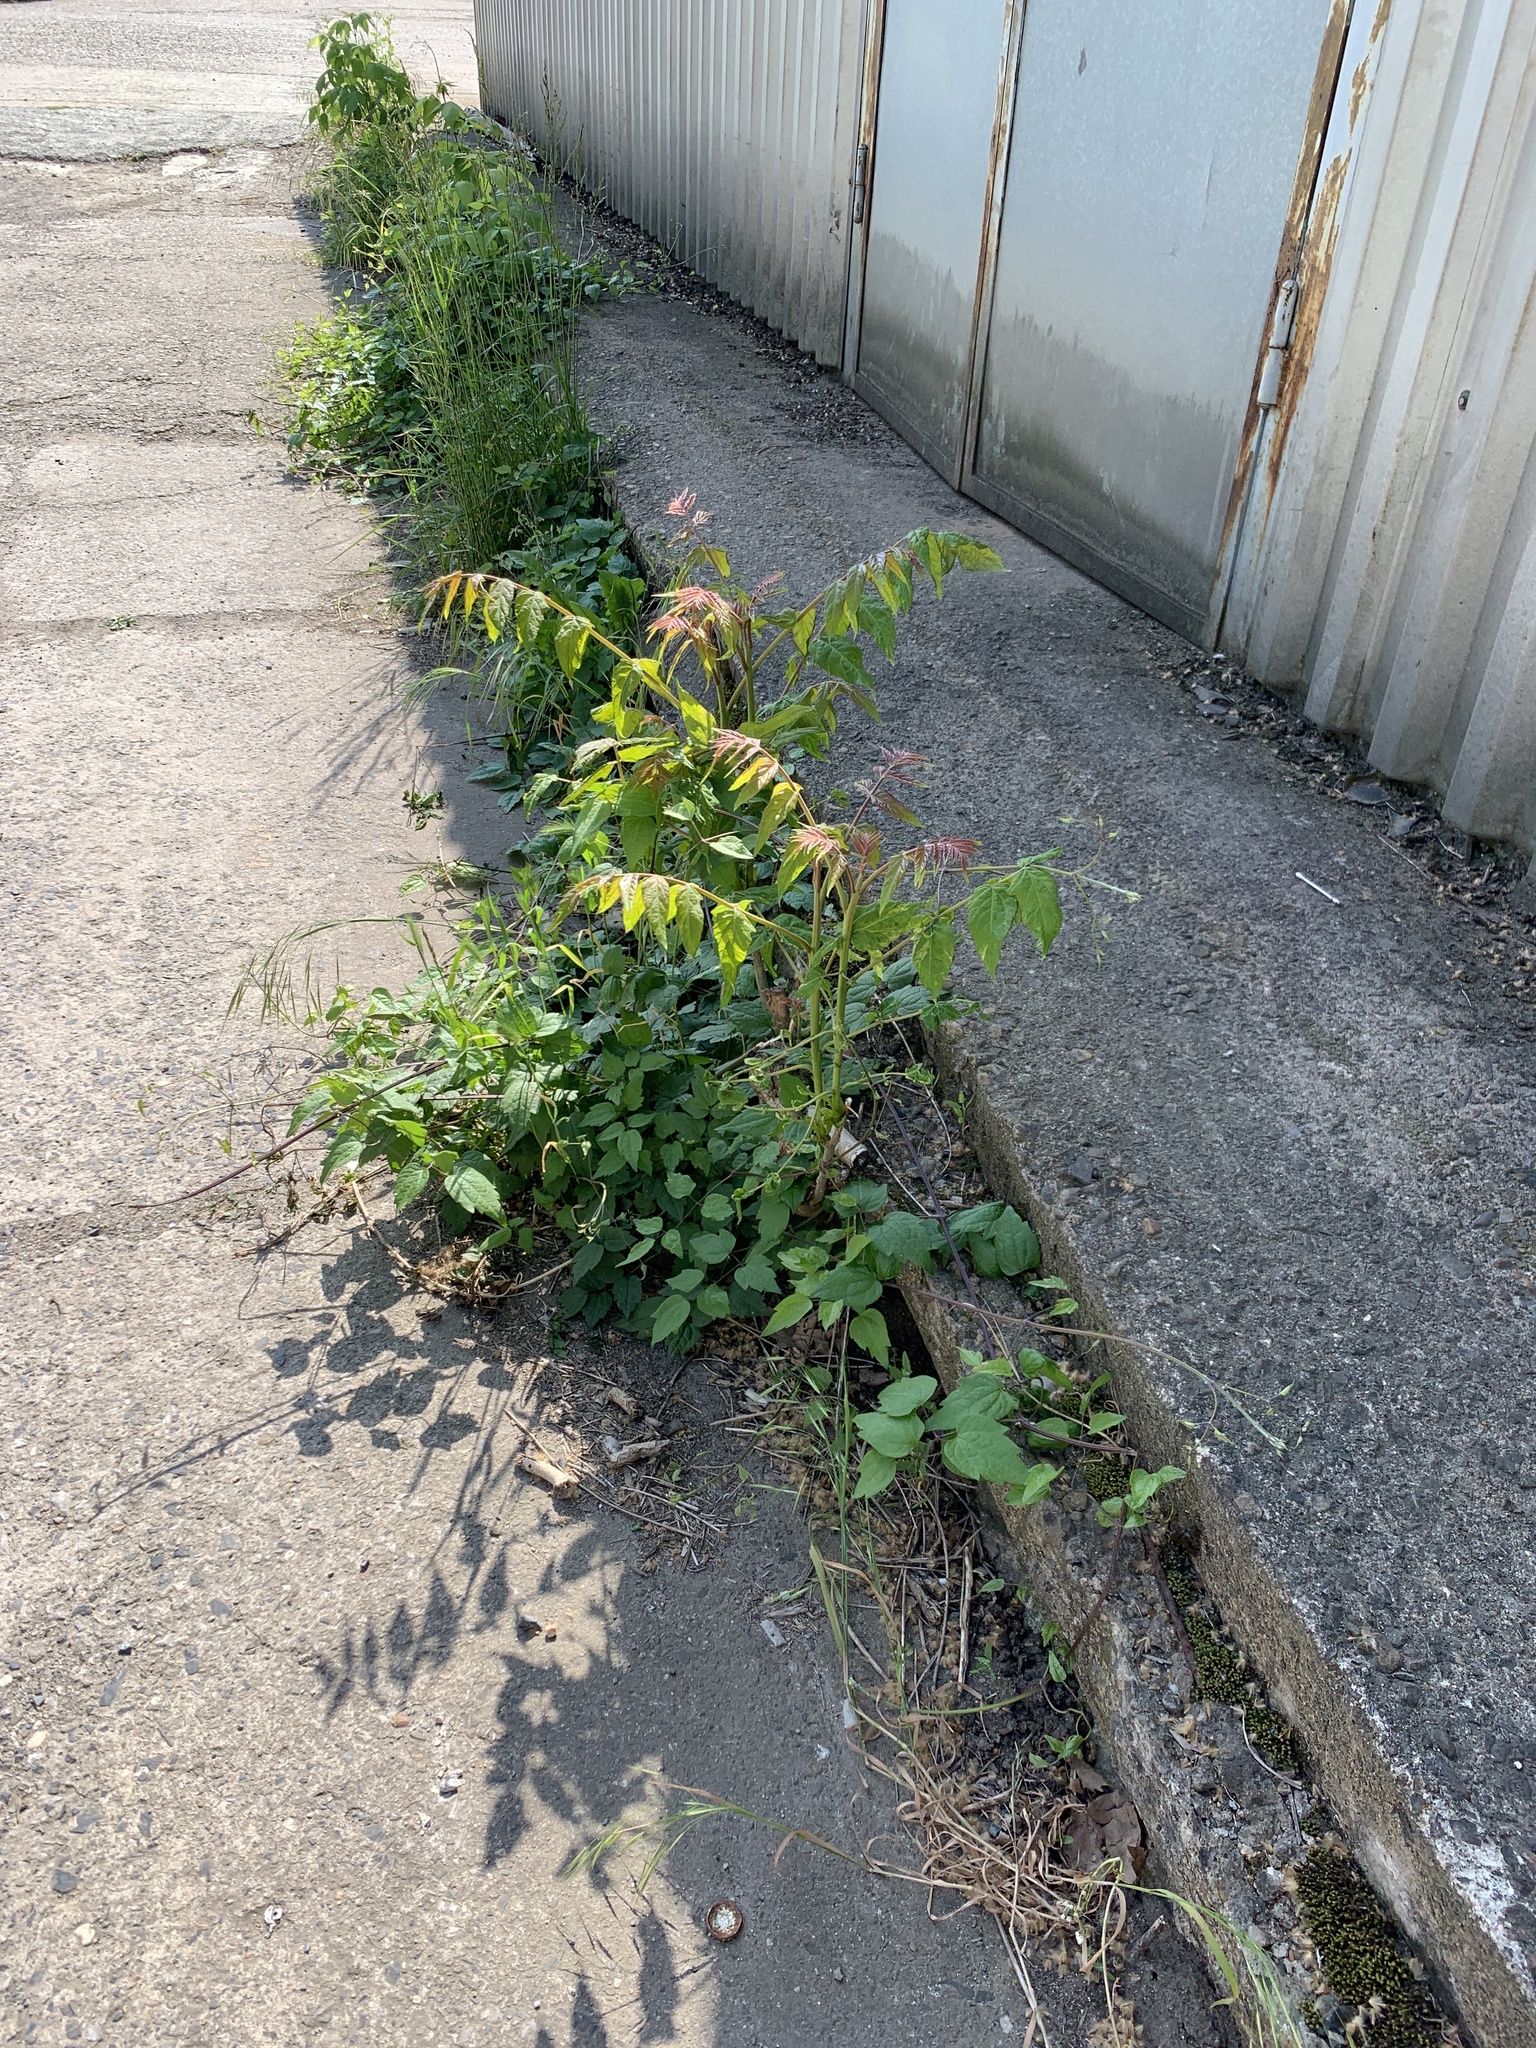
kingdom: Plantae
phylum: Tracheophyta
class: Magnoliopsida
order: Sapindales
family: Simaroubaceae
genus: Ailanthus
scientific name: Ailanthus altissima
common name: Tree-of-heaven
